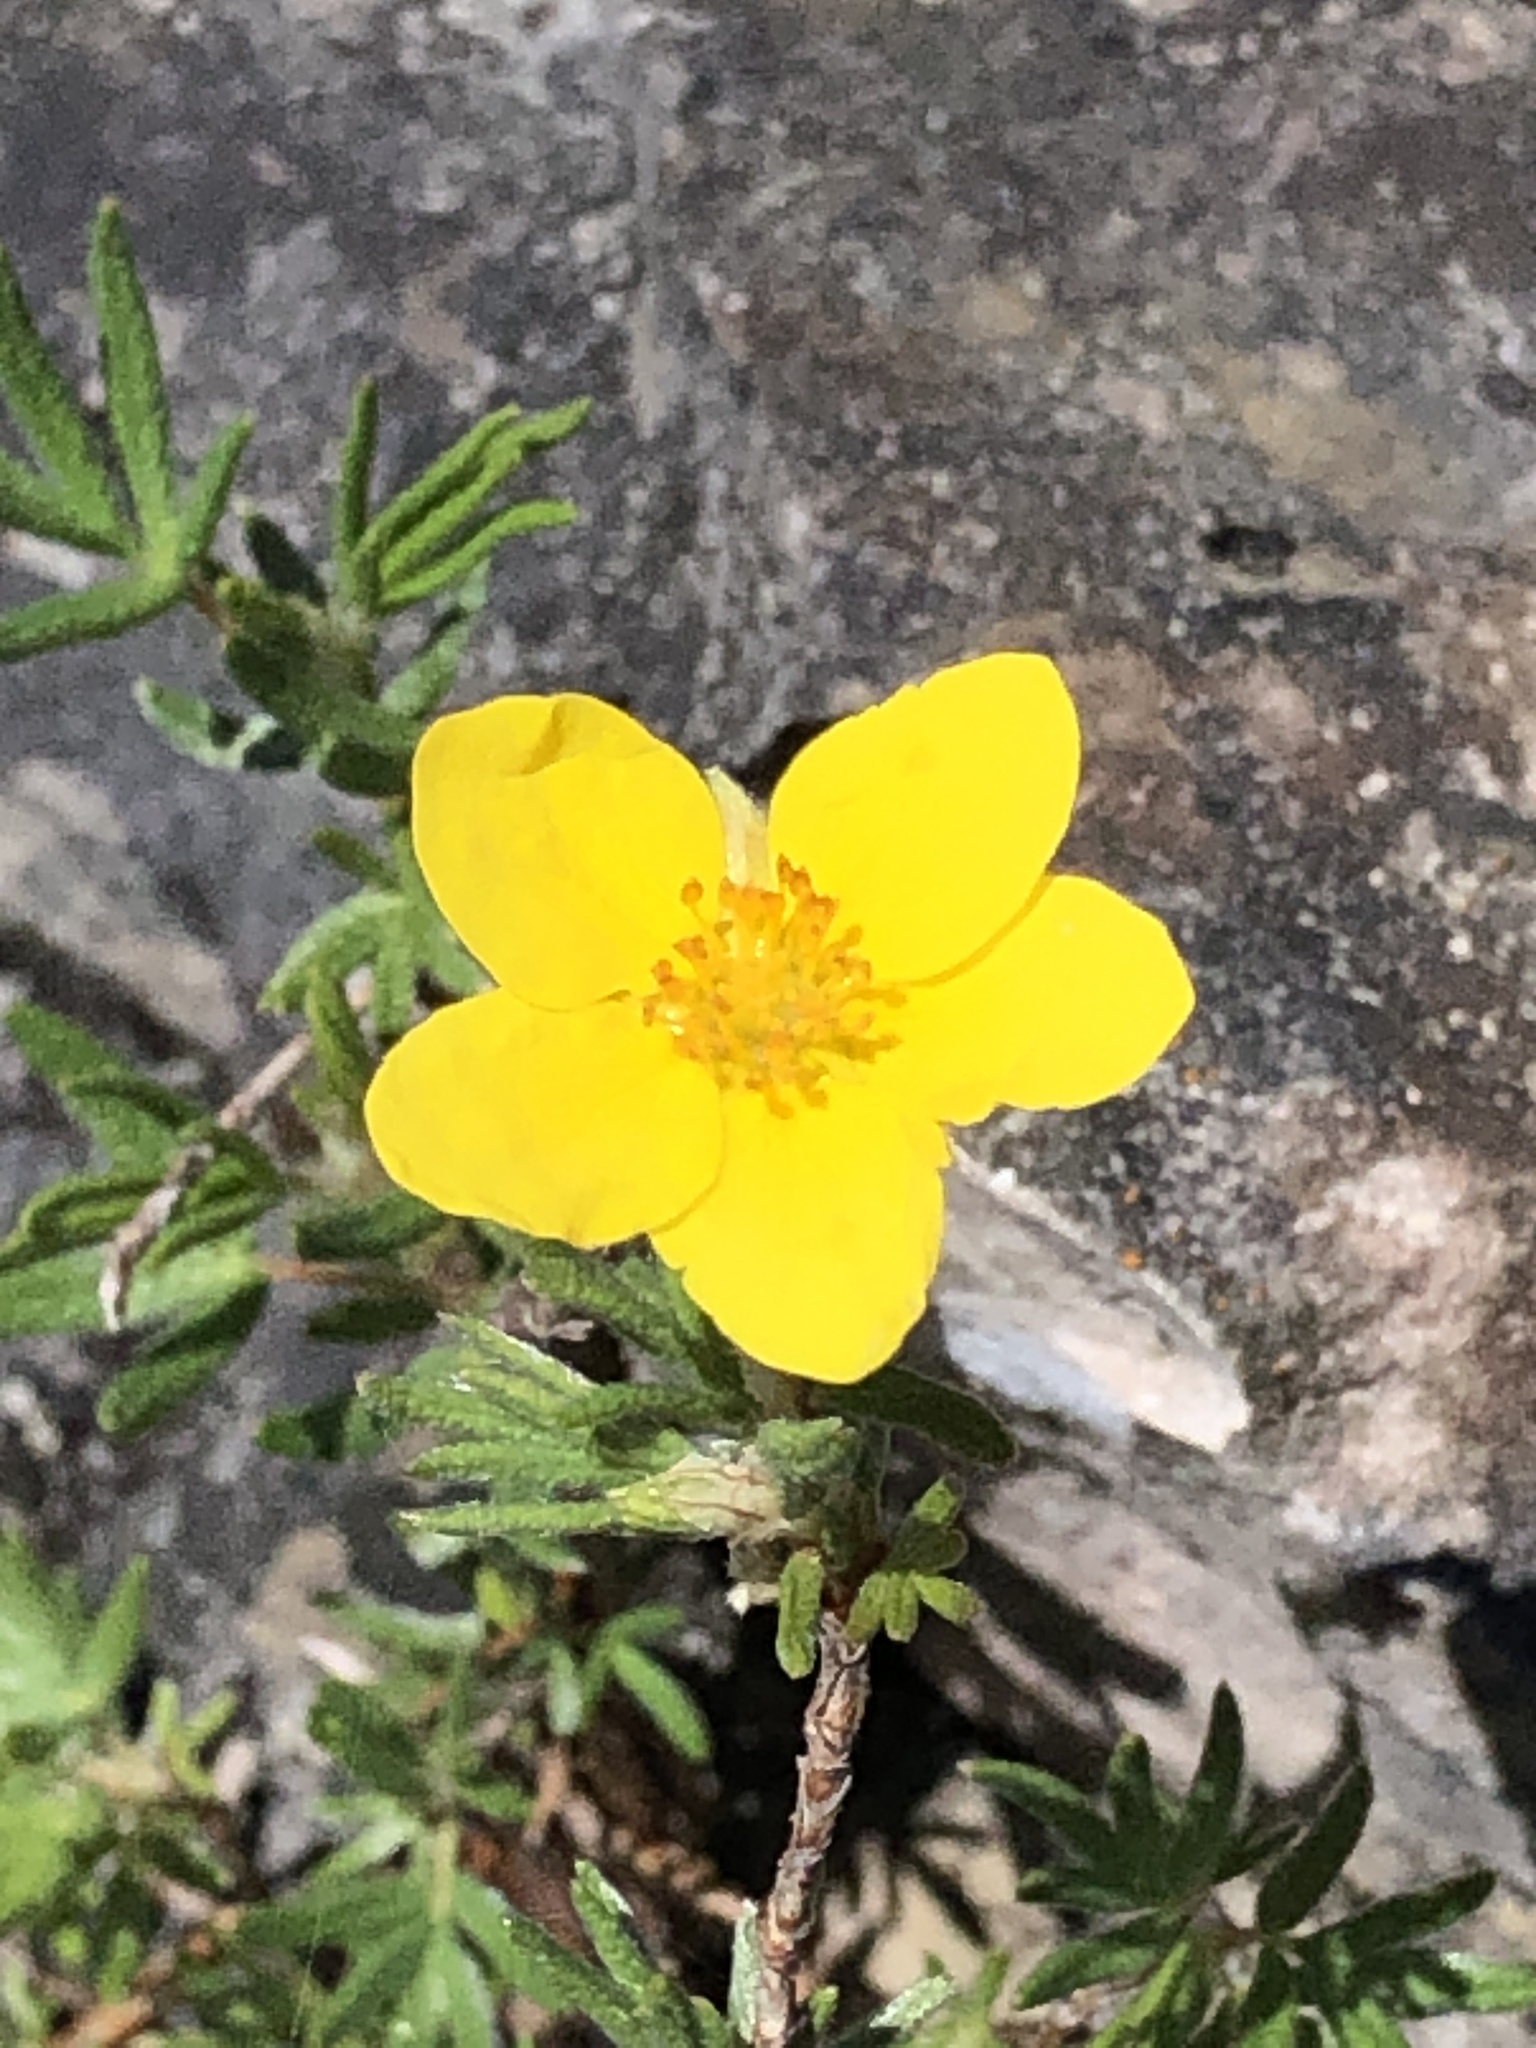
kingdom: Plantae
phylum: Tracheophyta
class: Magnoliopsida
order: Rosales
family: Rosaceae
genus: Dasiphora
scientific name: Dasiphora fruticosa
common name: Shrubby cinquefoil
